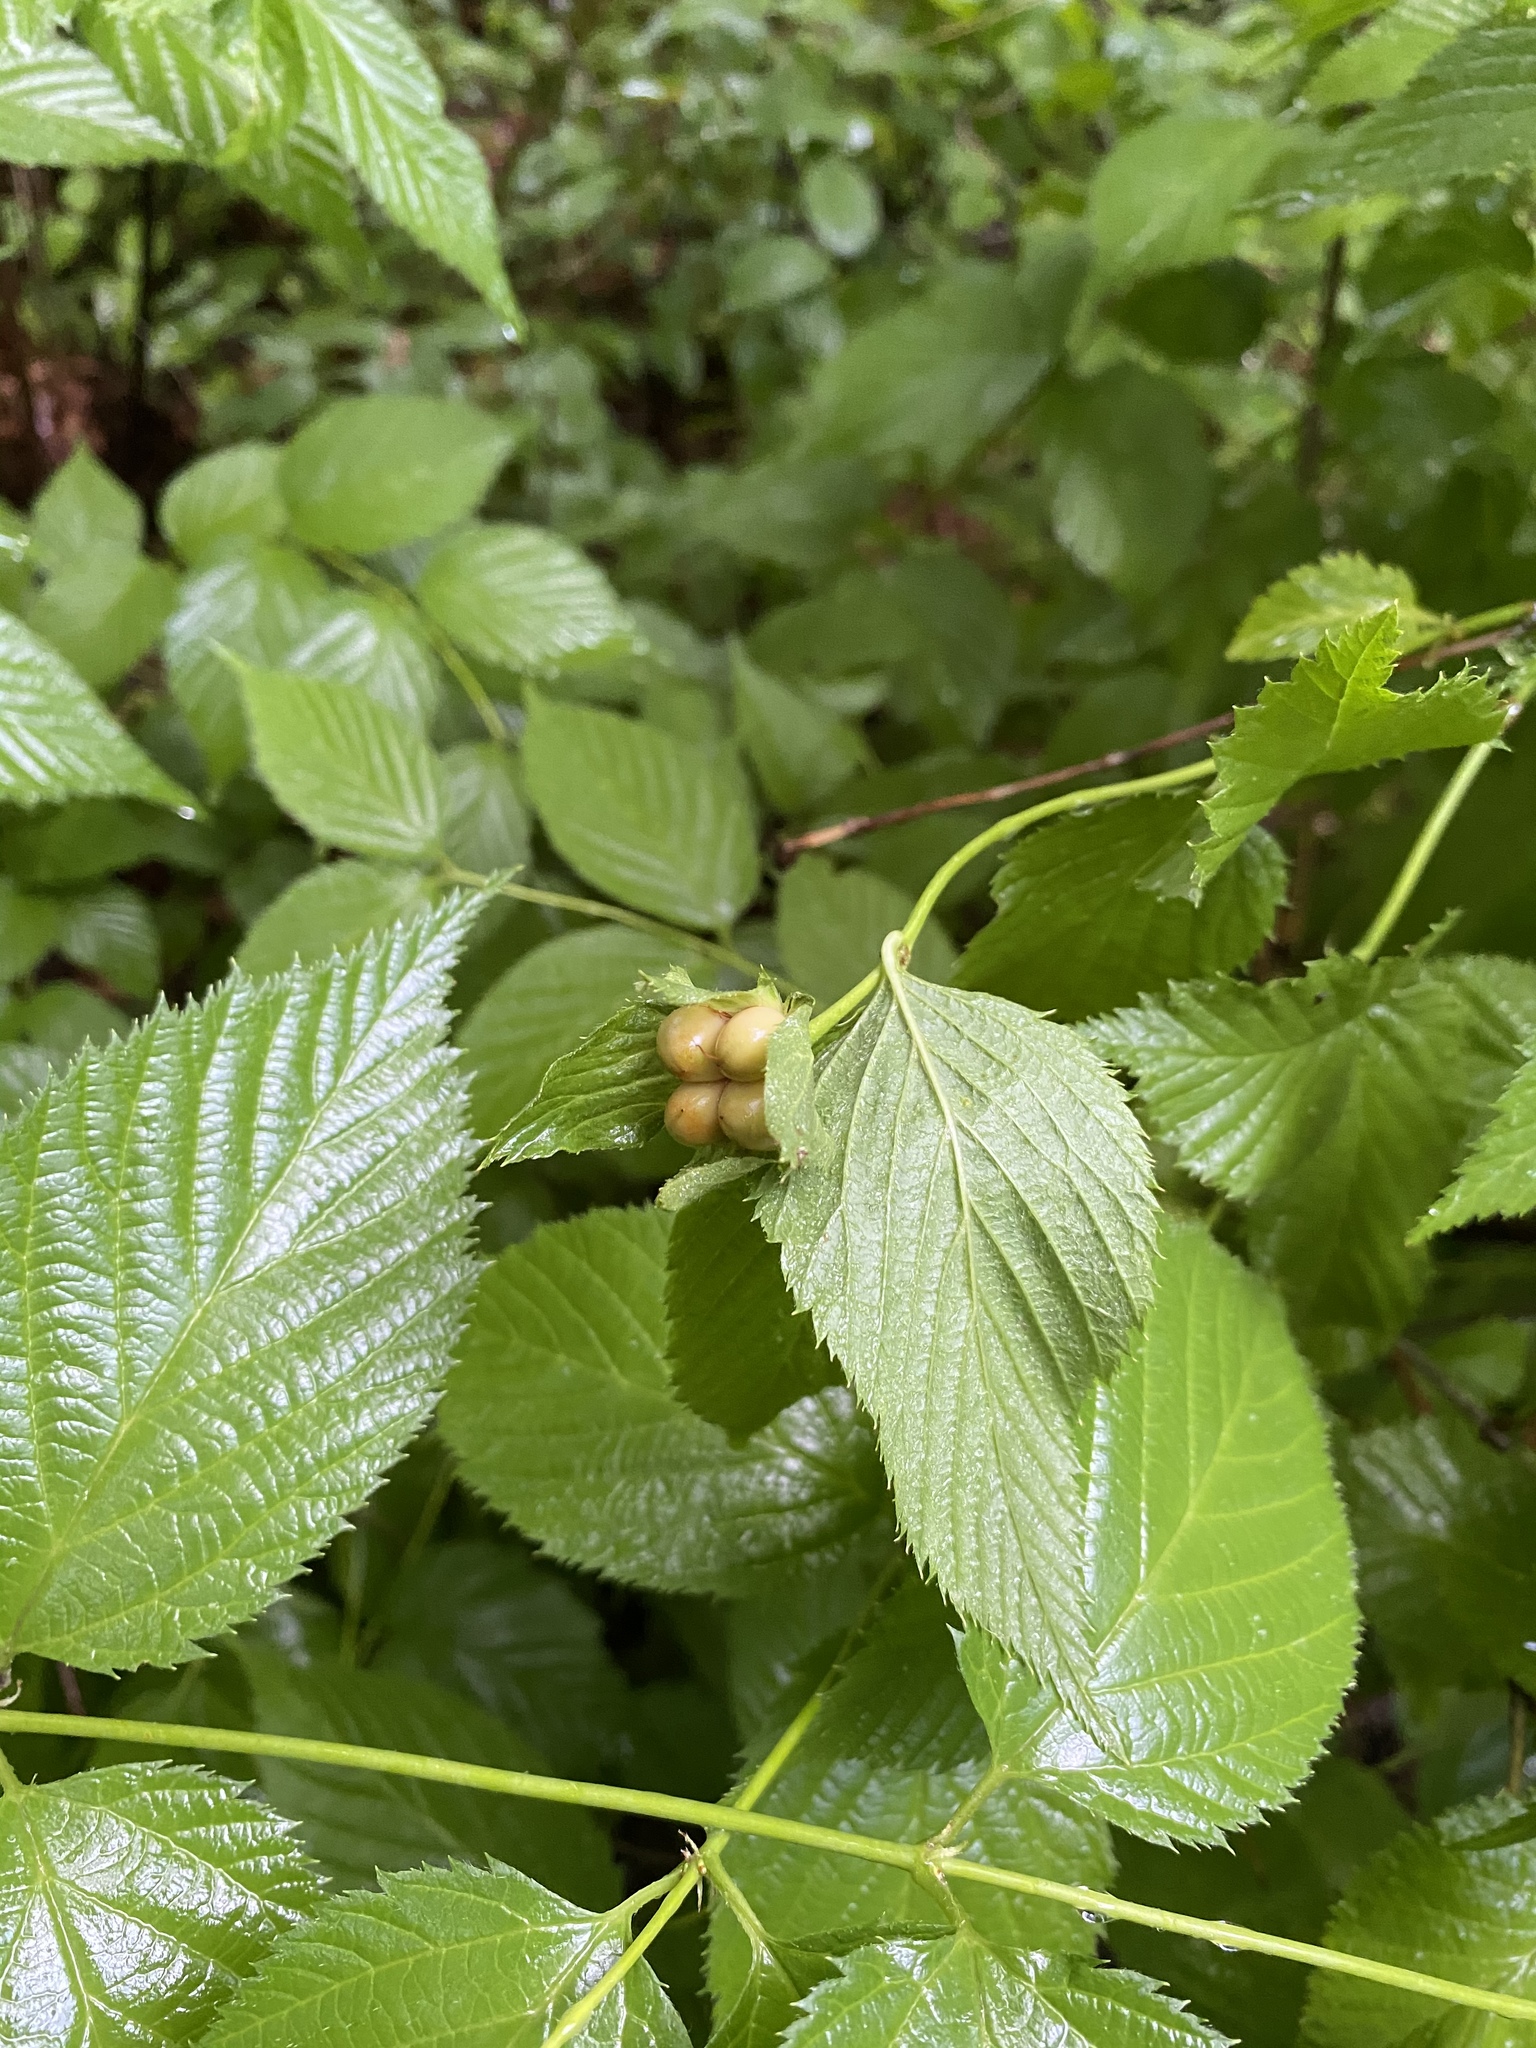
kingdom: Plantae
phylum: Tracheophyta
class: Magnoliopsida
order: Rosales
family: Rosaceae
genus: Rhodotypos
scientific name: Rhodotypos scandens
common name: Jetbead
